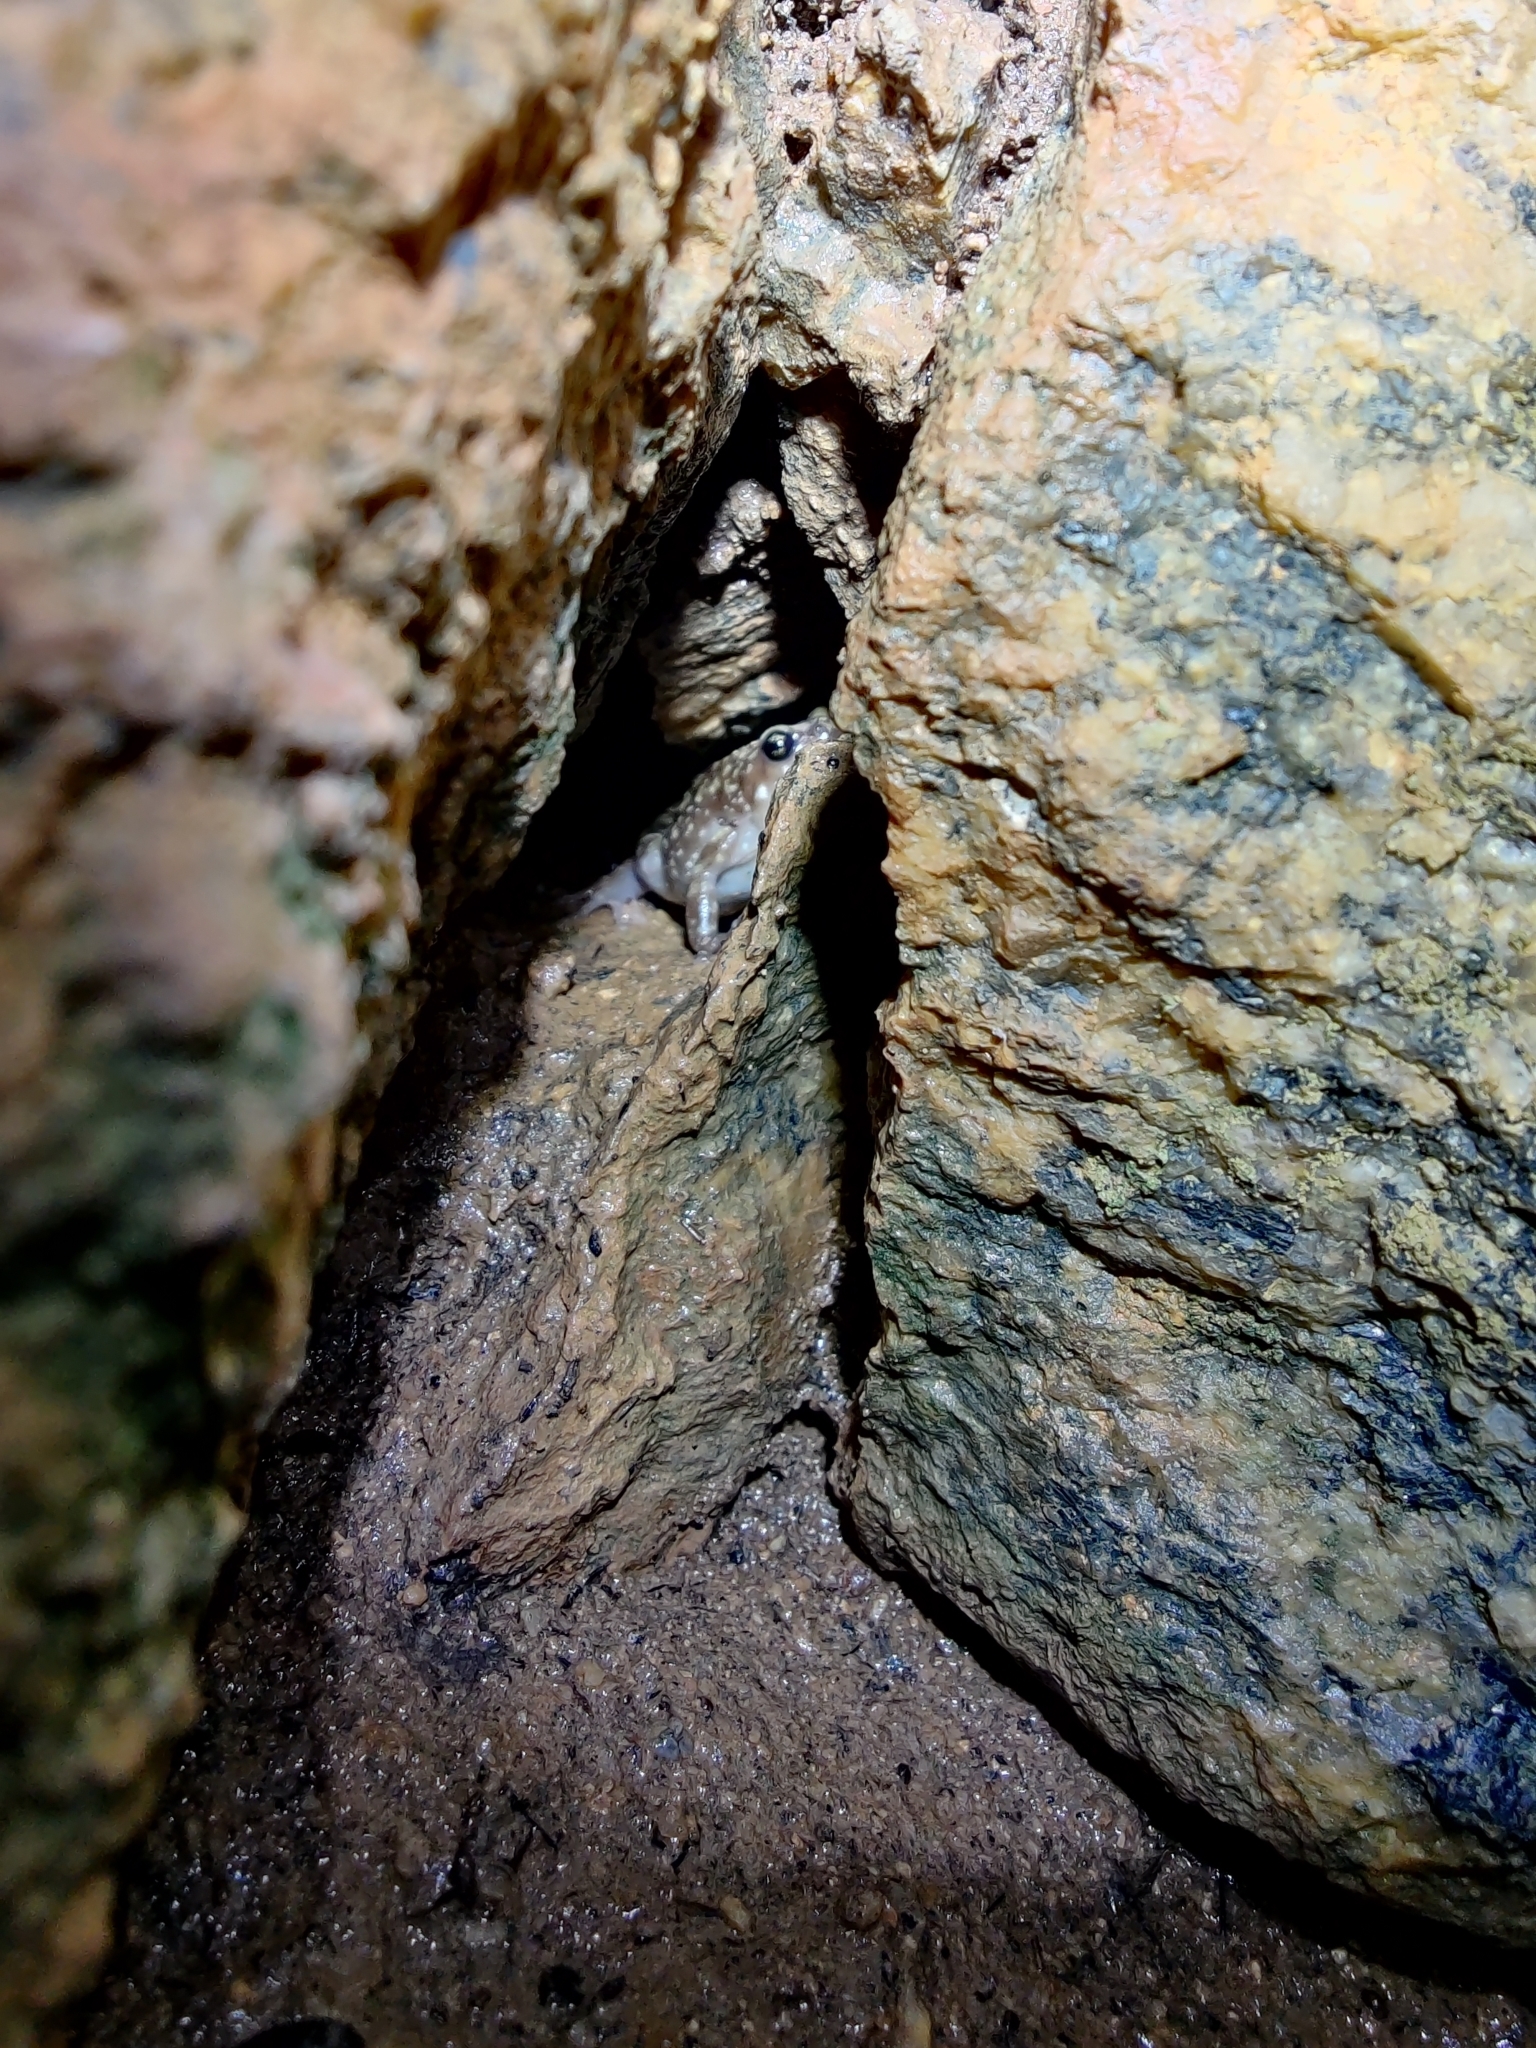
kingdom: Animalia
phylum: Chordata
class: Amphibia
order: Anura
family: Microhylidae
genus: Uperodon
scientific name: Uperodon variegatus
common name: Eluru dot frog
